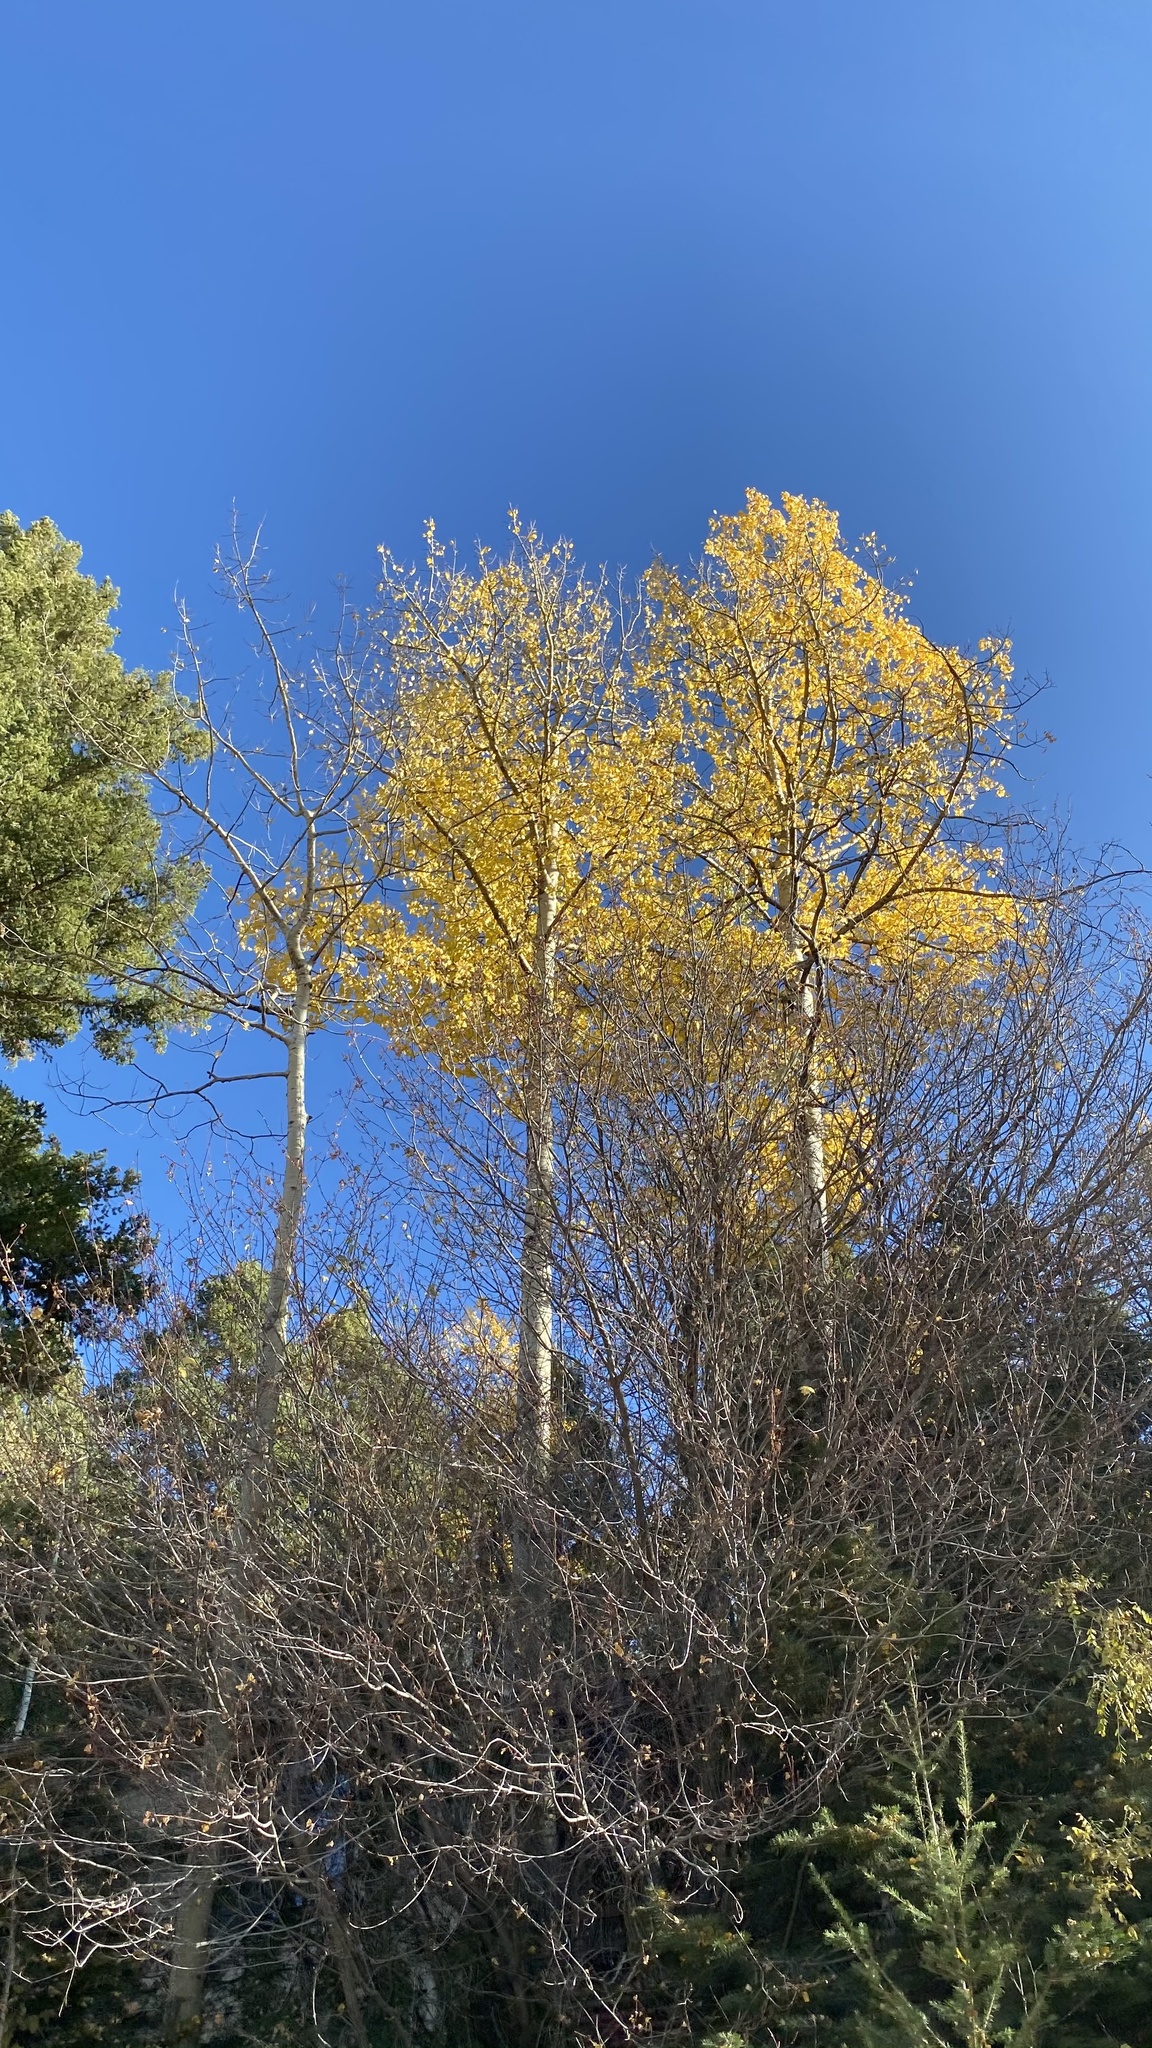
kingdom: Plantae
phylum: Tracheophyta
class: Magnoliopsida
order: Malpighiales
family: Salicaceae
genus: Populus
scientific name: Populus tremuloides
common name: Quaking aspen
